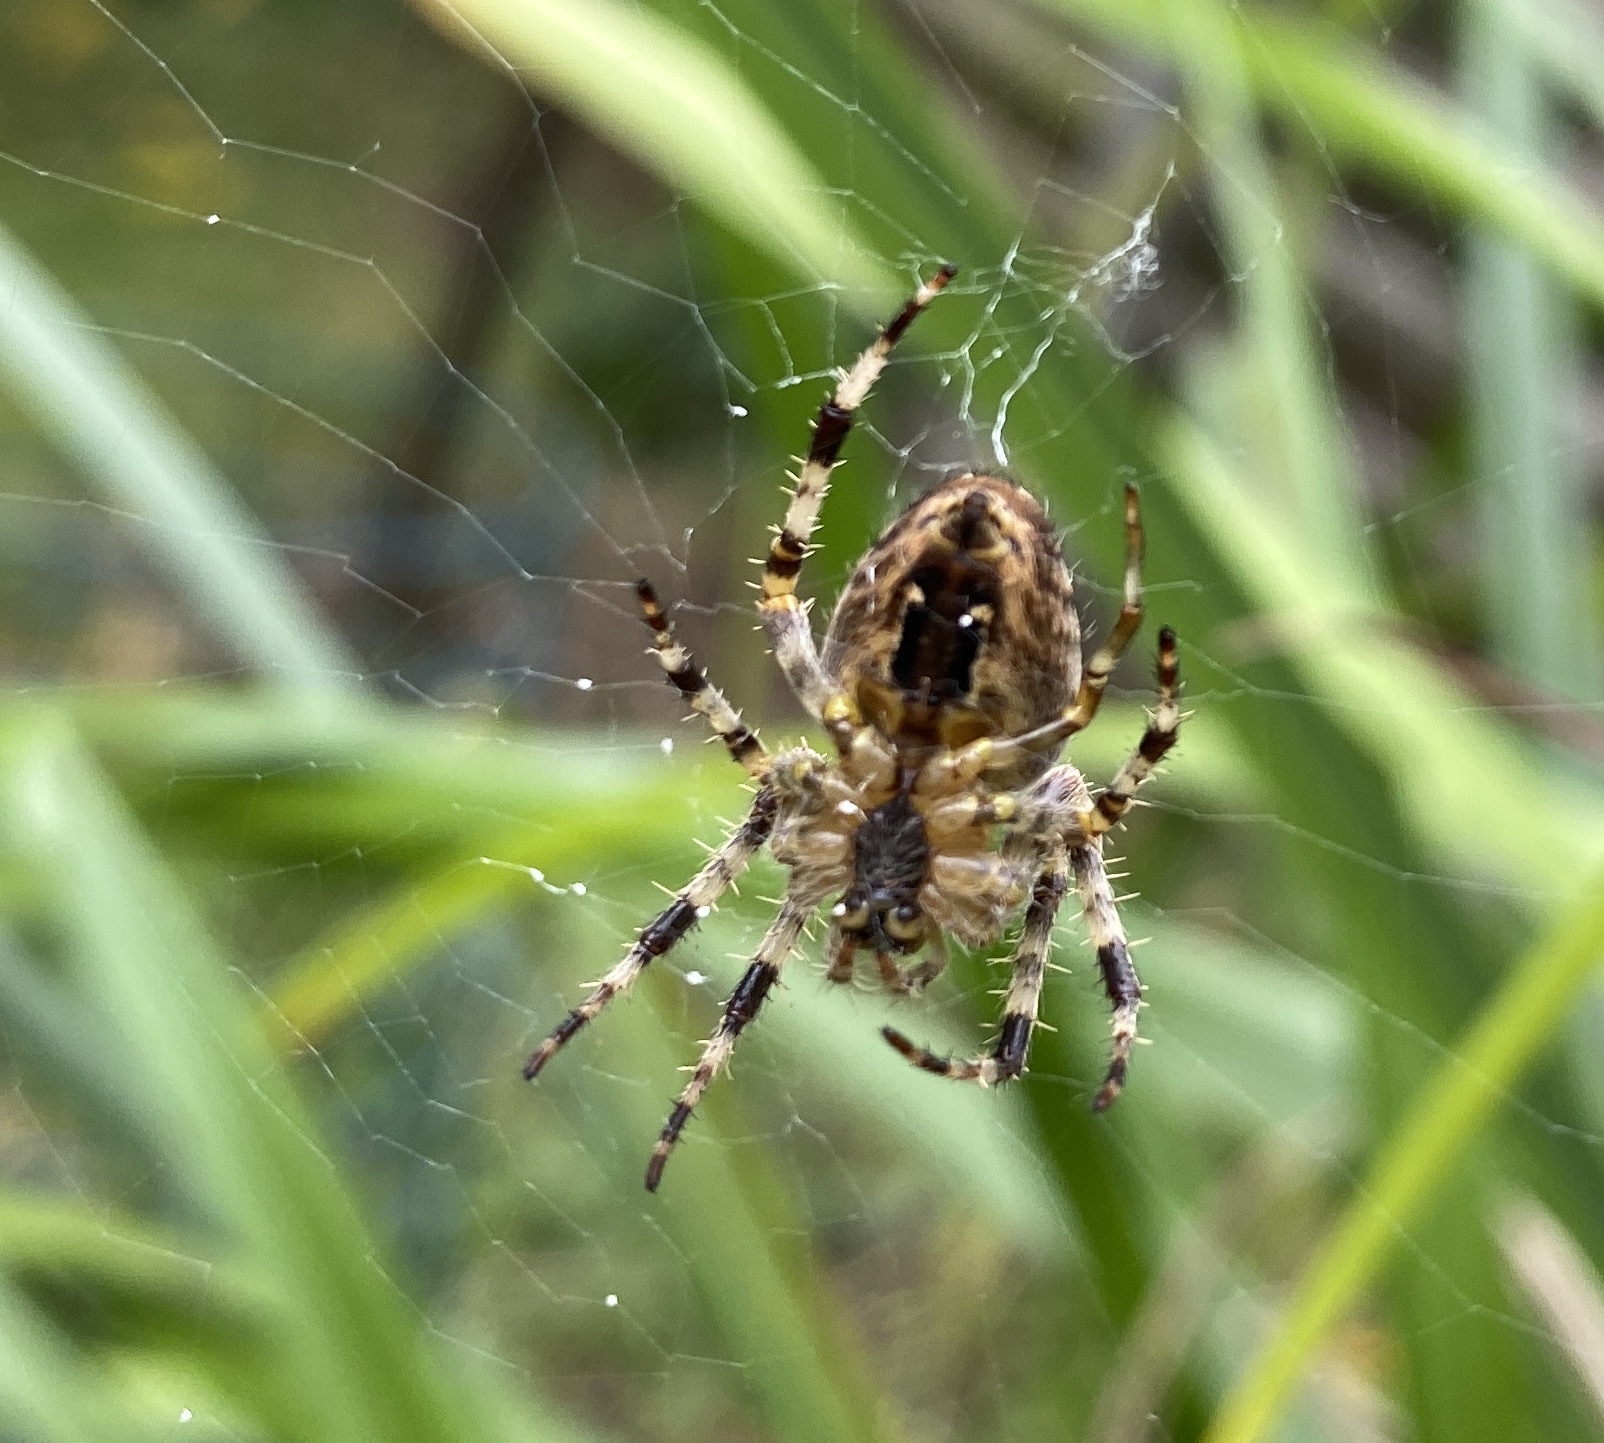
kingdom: Animalia
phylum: Arthropoda
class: Arachnida
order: Araneae
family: Araneidae
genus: Araneus
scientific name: Araneus diadematus
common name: Cross orbweaver
